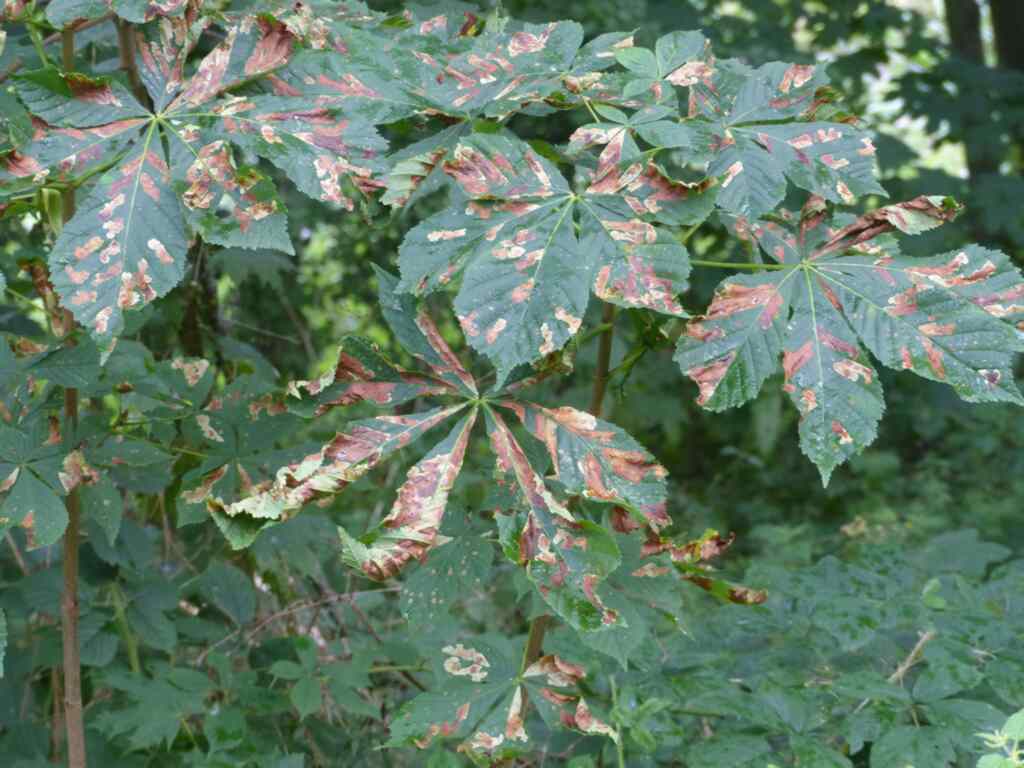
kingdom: Plantae
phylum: Tracheophyta
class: Magnoliopsida
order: Sapindales
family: Sapindaceae
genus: Aesculus
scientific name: Aesculus hippocastanum
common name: Horse-chestnut
